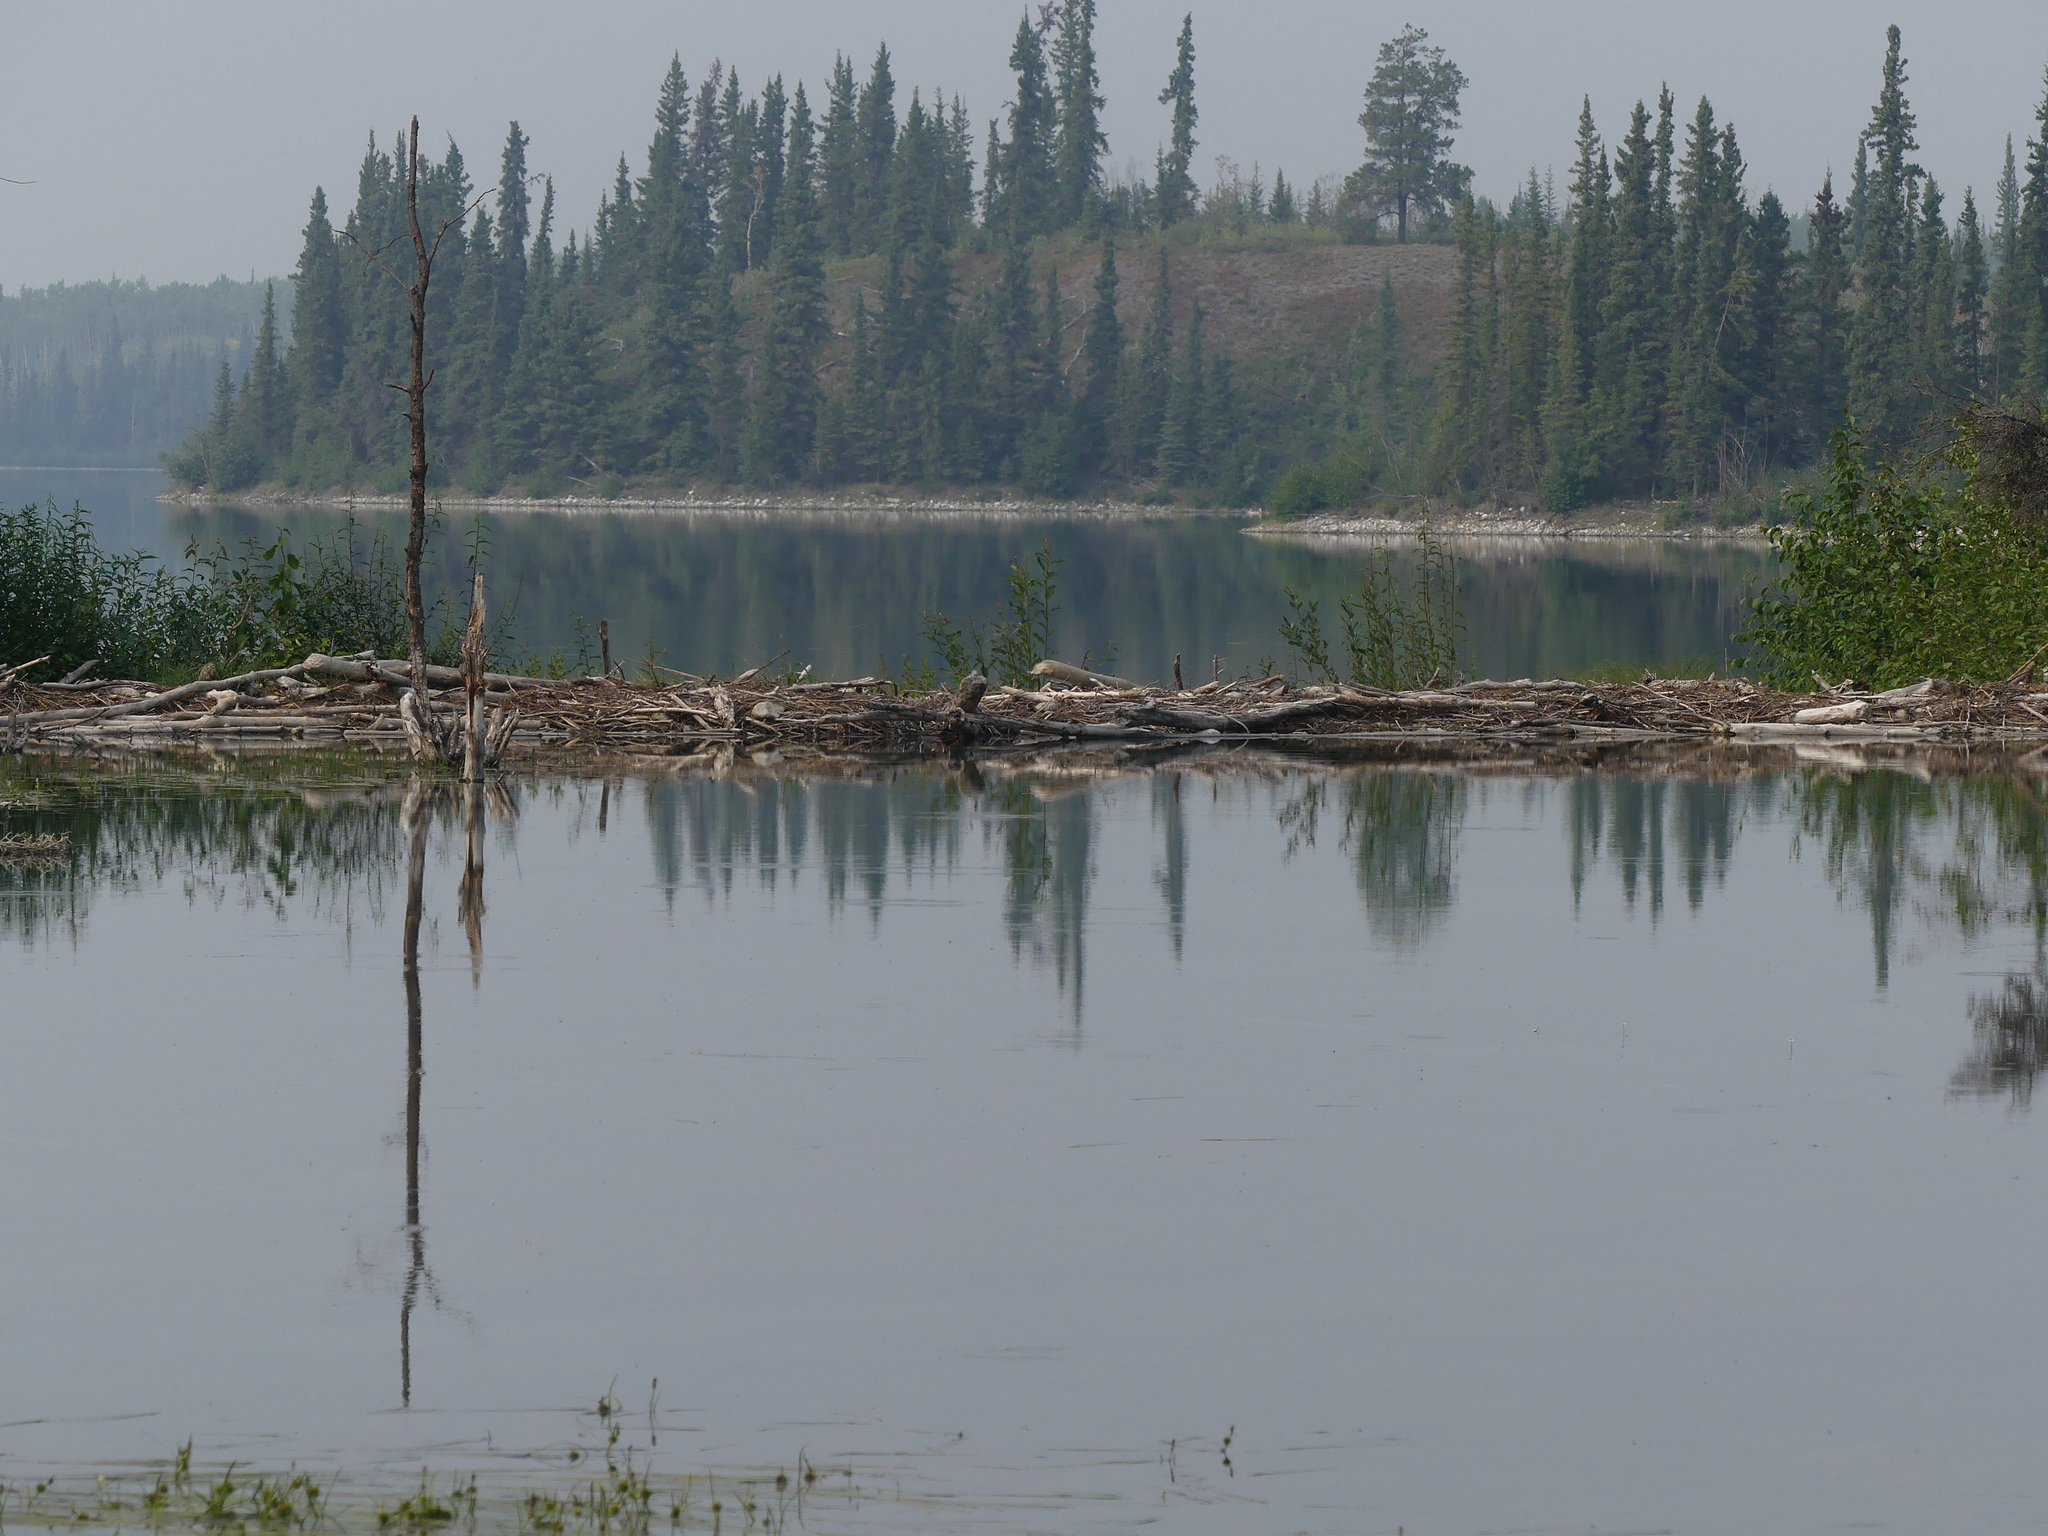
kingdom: Animalia
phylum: Chordata
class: Mammalia
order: Rodentia
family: Castoridae
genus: Castor
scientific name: Castor canadensis
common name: American beaver
